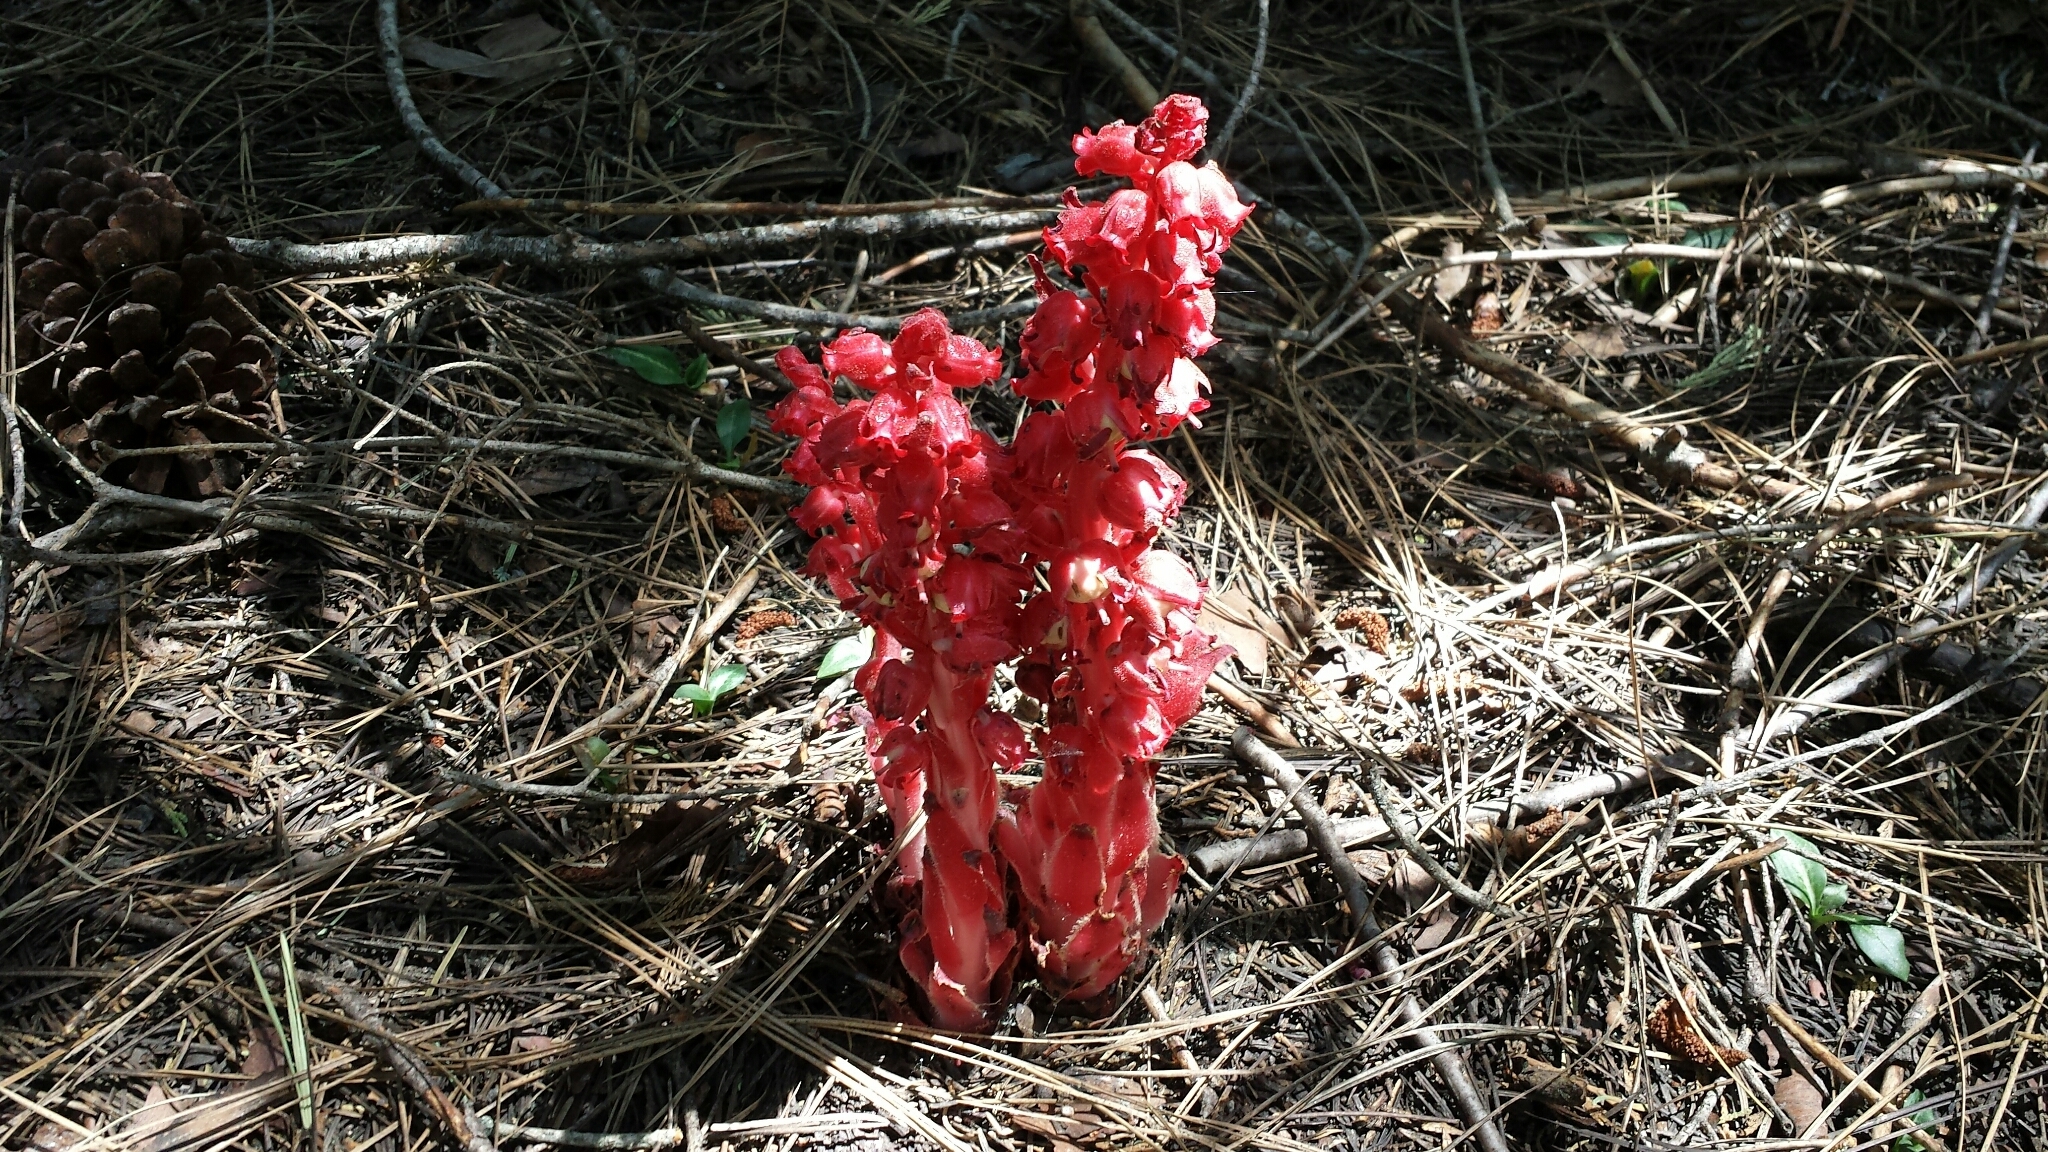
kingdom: Plantae
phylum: Tracheophyta
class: Magnoliopsida
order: Ericales
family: Ericaceae
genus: Sarcodes
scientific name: Sarcodes sanguinea
